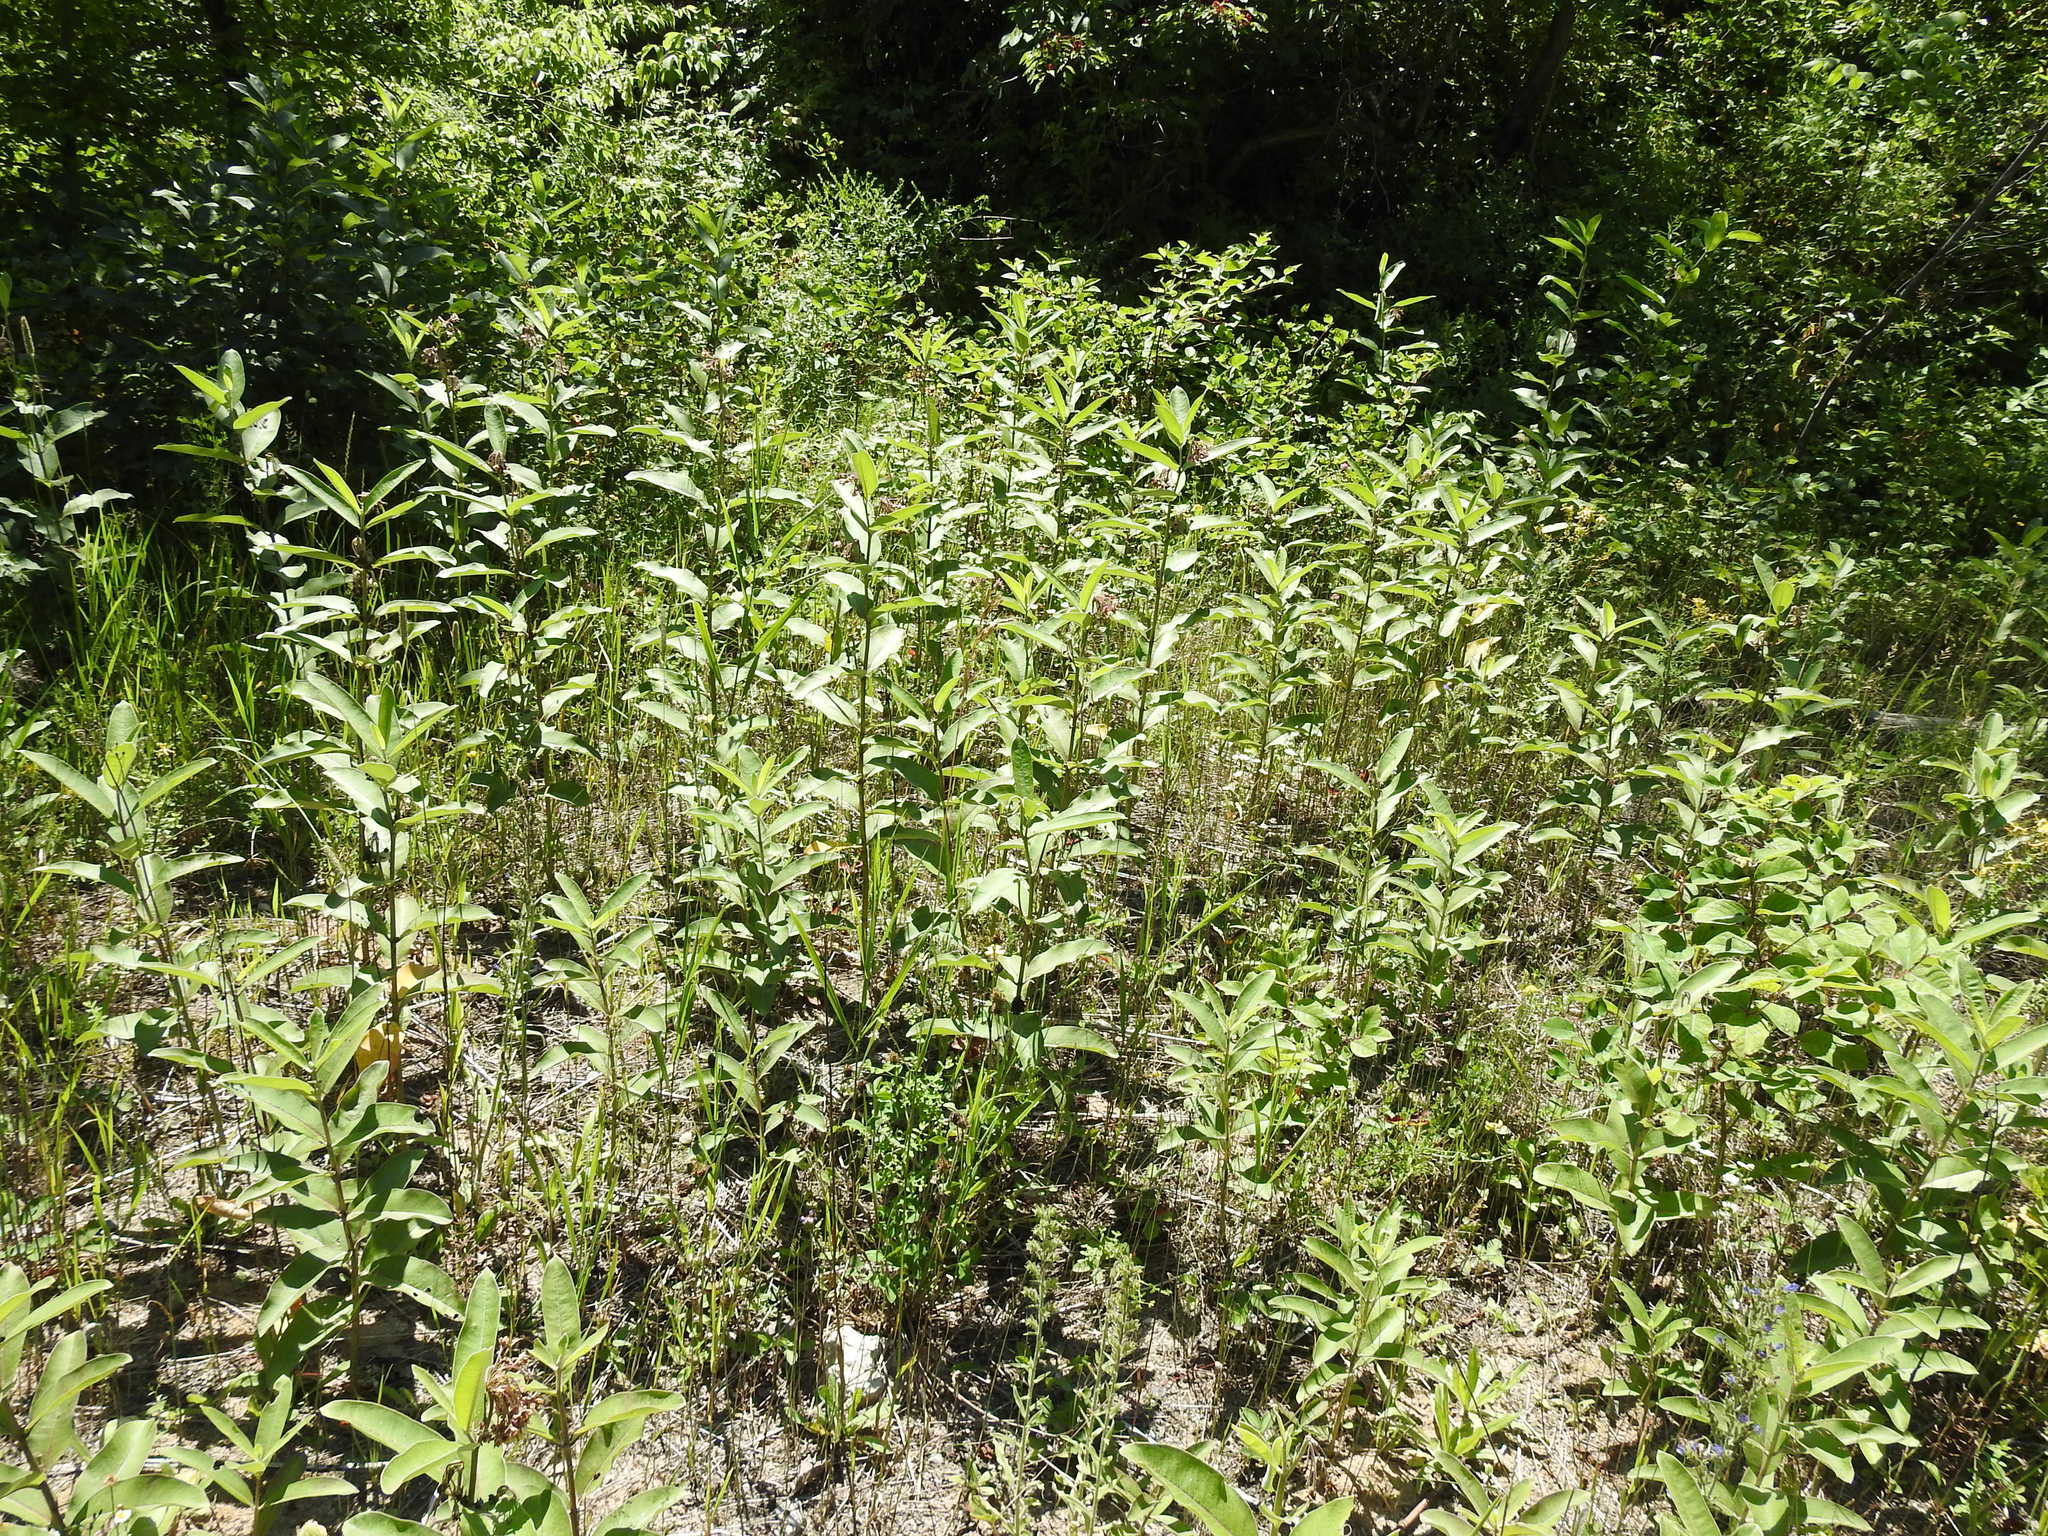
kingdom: Plantae
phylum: Tracheophyta
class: Magnoliopsida
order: Gentianales
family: Apocynaceae
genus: Asclepias
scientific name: Asclepias syriaca
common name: Common milkweed
